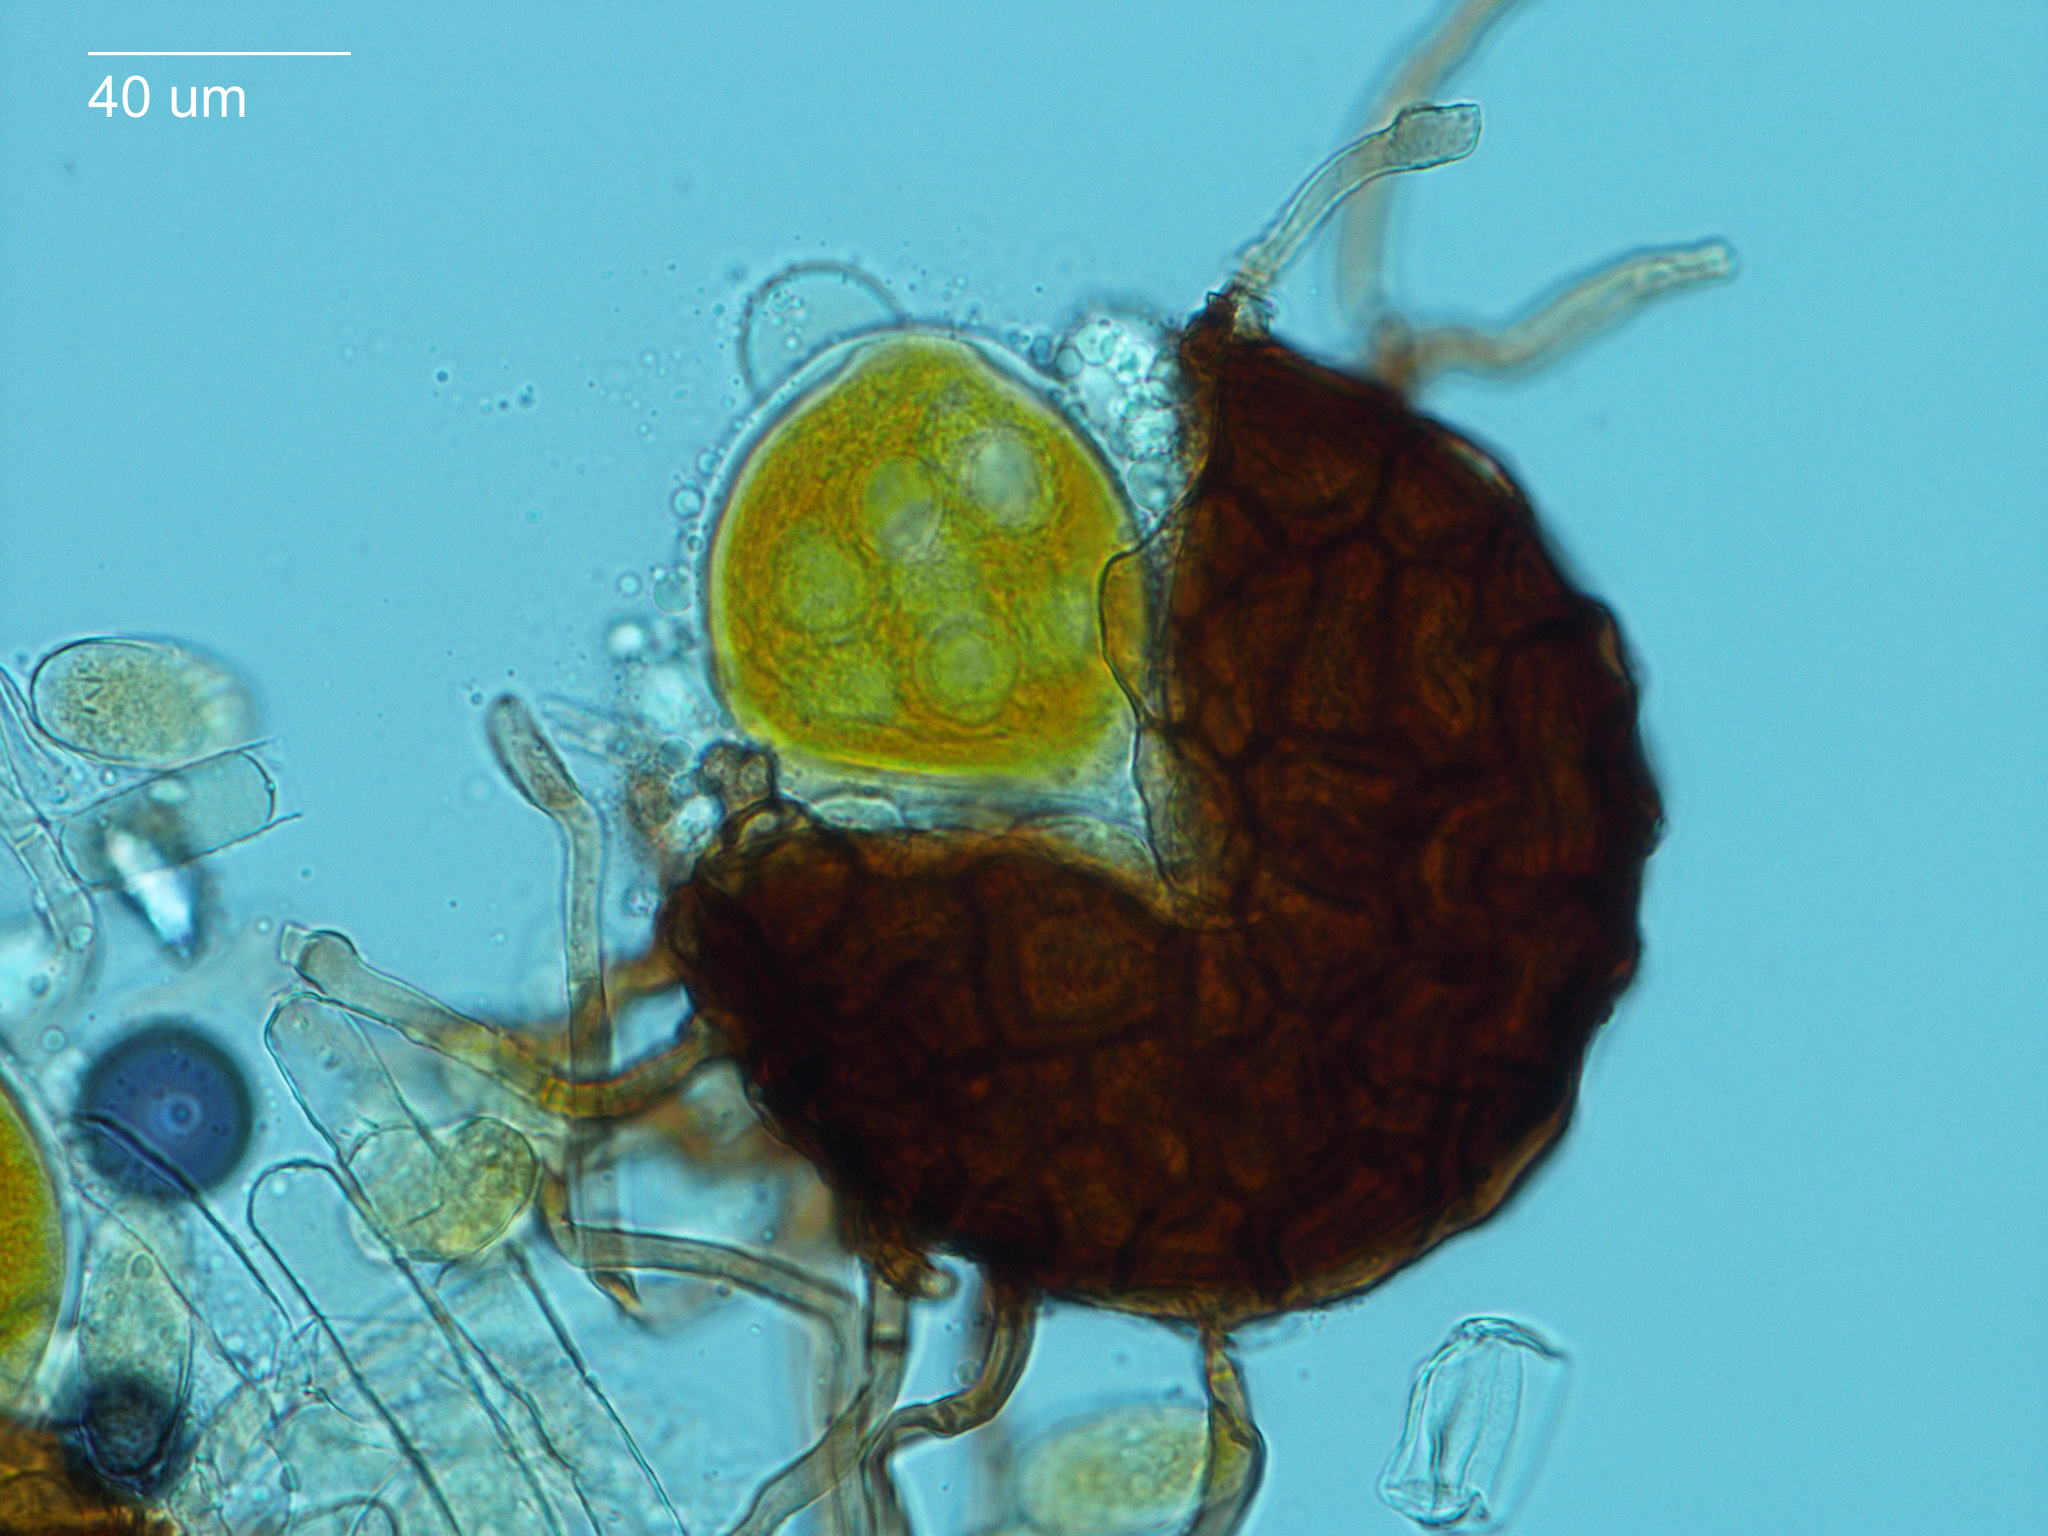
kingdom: Fungi
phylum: Ascomycota
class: Leotiomycetes
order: Helotiales
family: Erysiphaceae
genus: Podosphaera
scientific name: Podosphaera plantaginis
